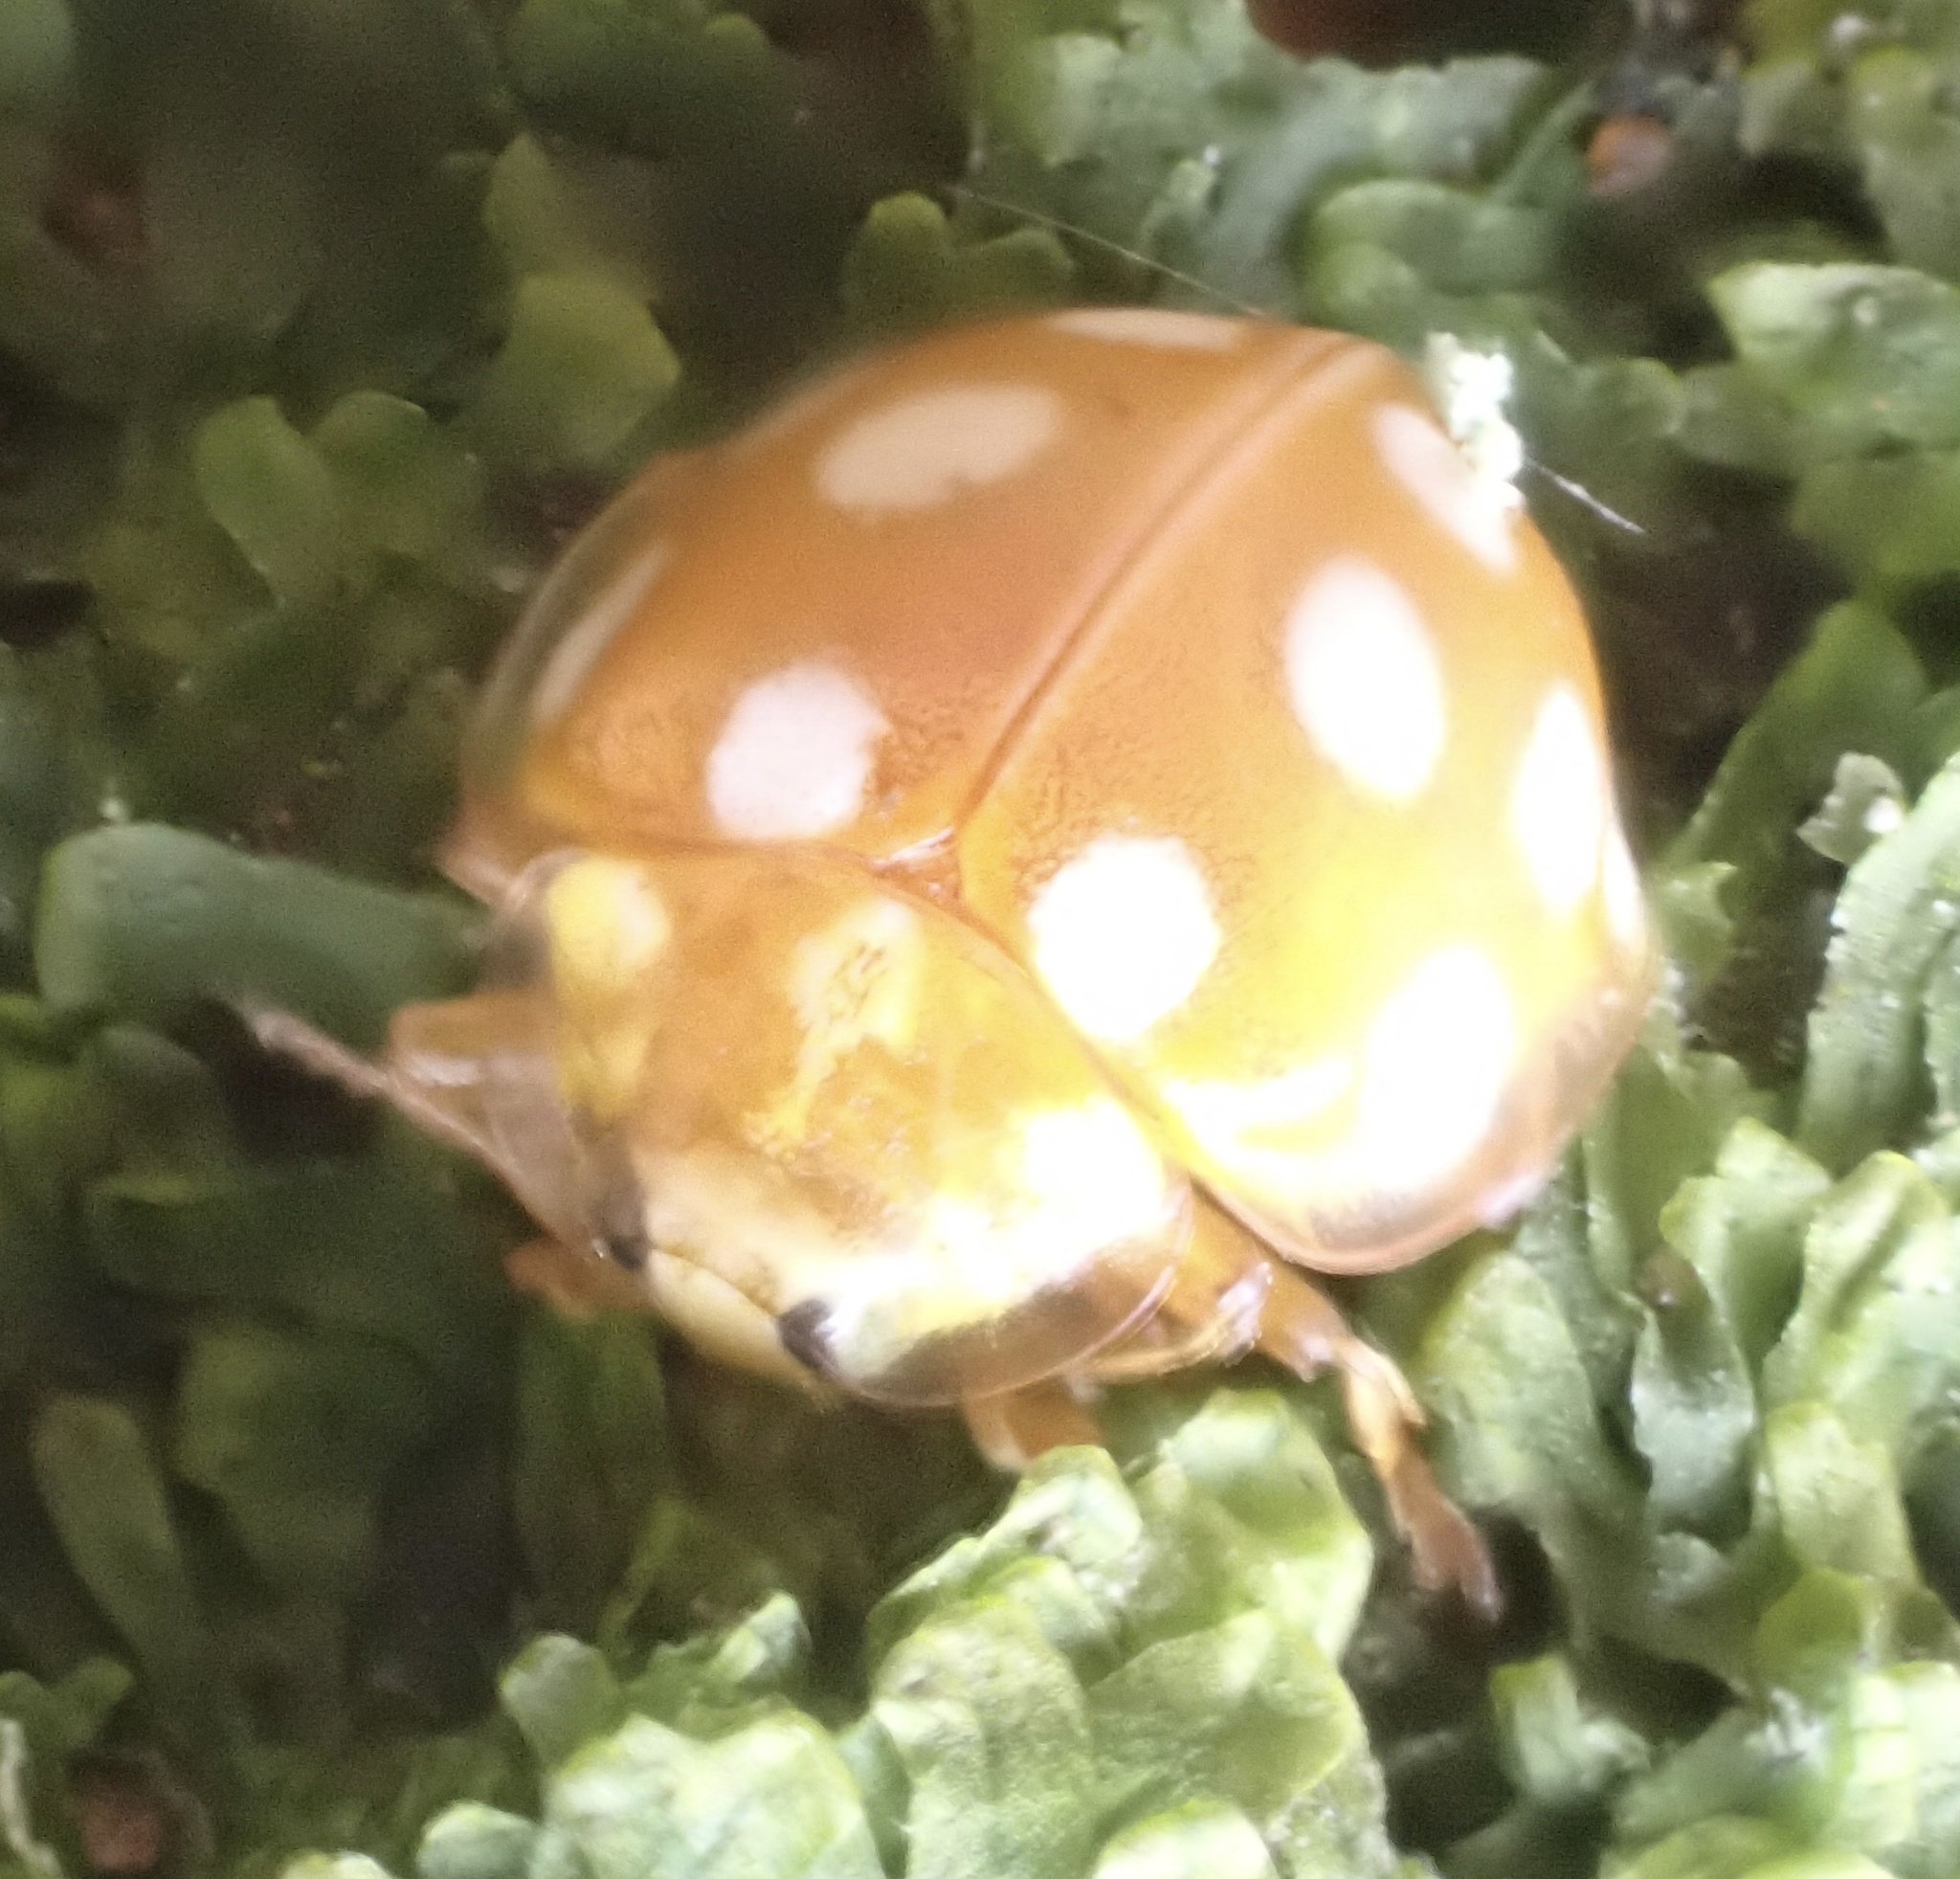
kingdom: Animalia
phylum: Arthropoda
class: Insecta
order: Coleoptera
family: Coccinellidae
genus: Halyzia
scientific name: Halyzia sedecimguttata
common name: Orange ladybird
